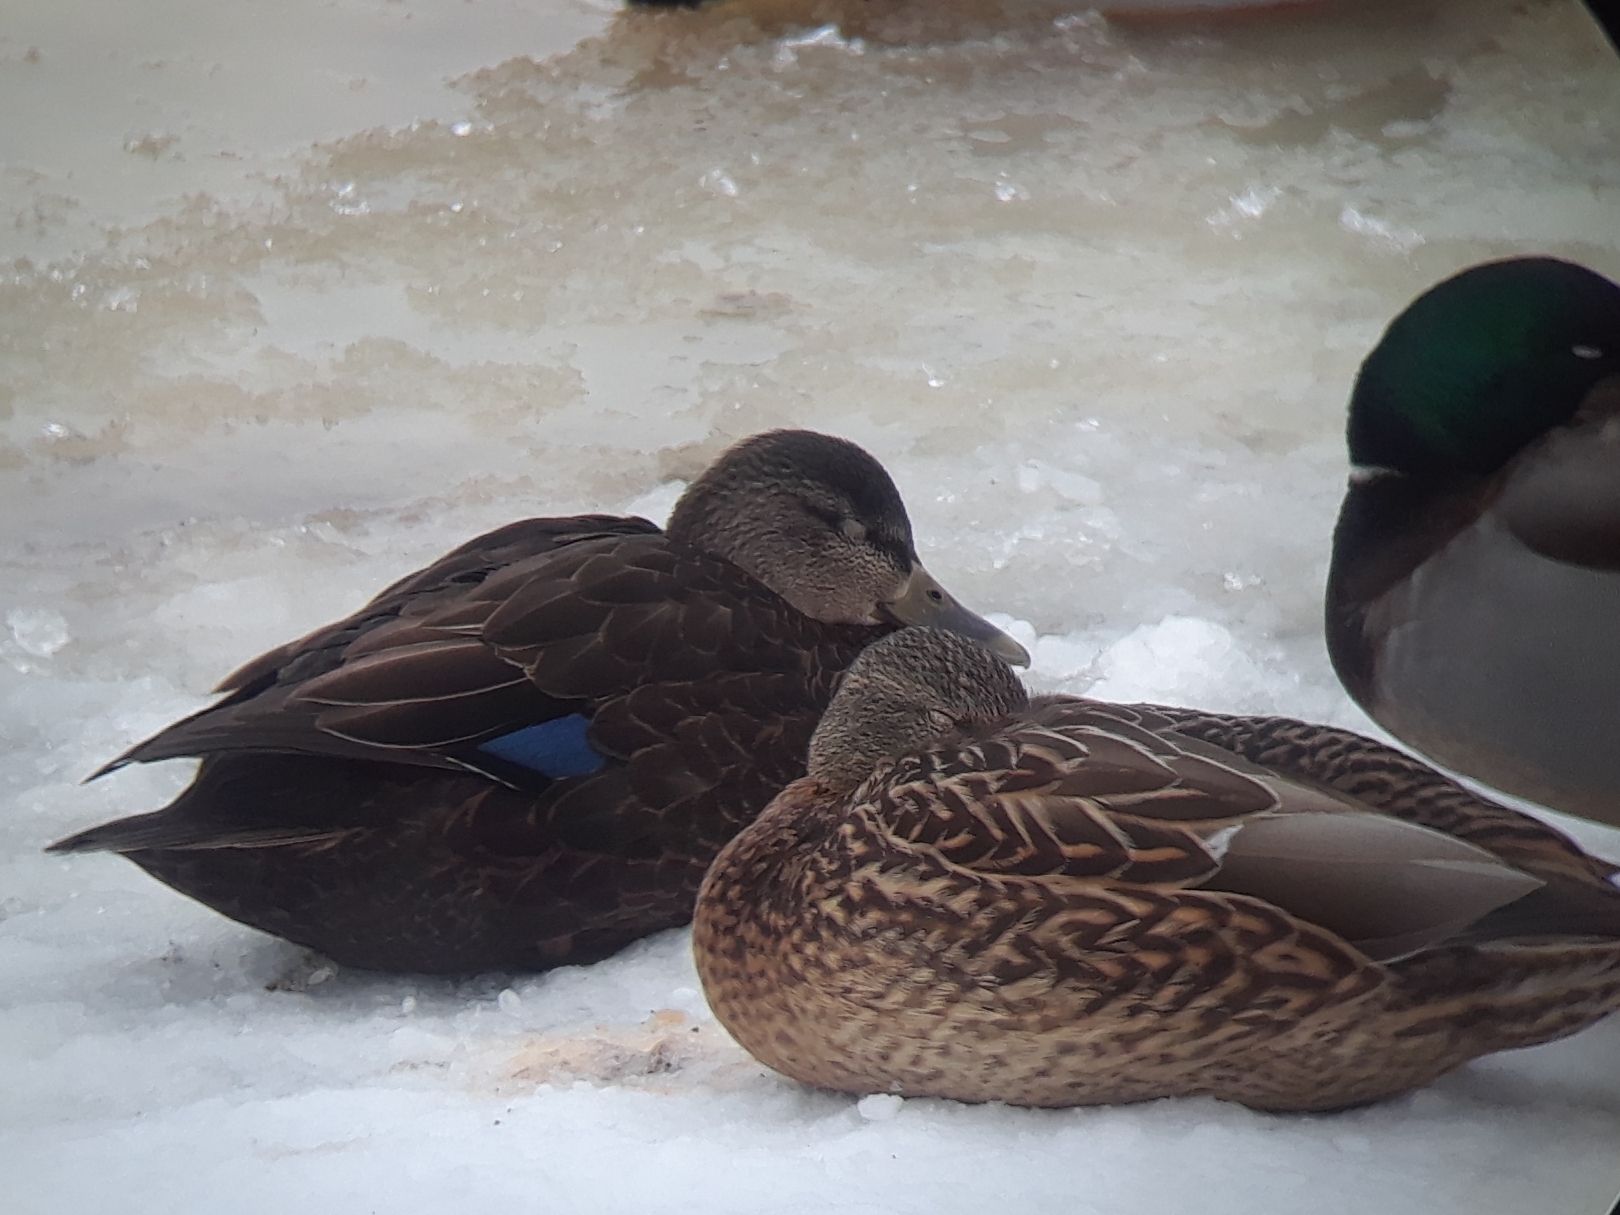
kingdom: Animalia
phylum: Chordata
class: Aves
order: Anseriformes
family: Anatidae
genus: Anas
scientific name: Anas rubripes
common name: American black duck
